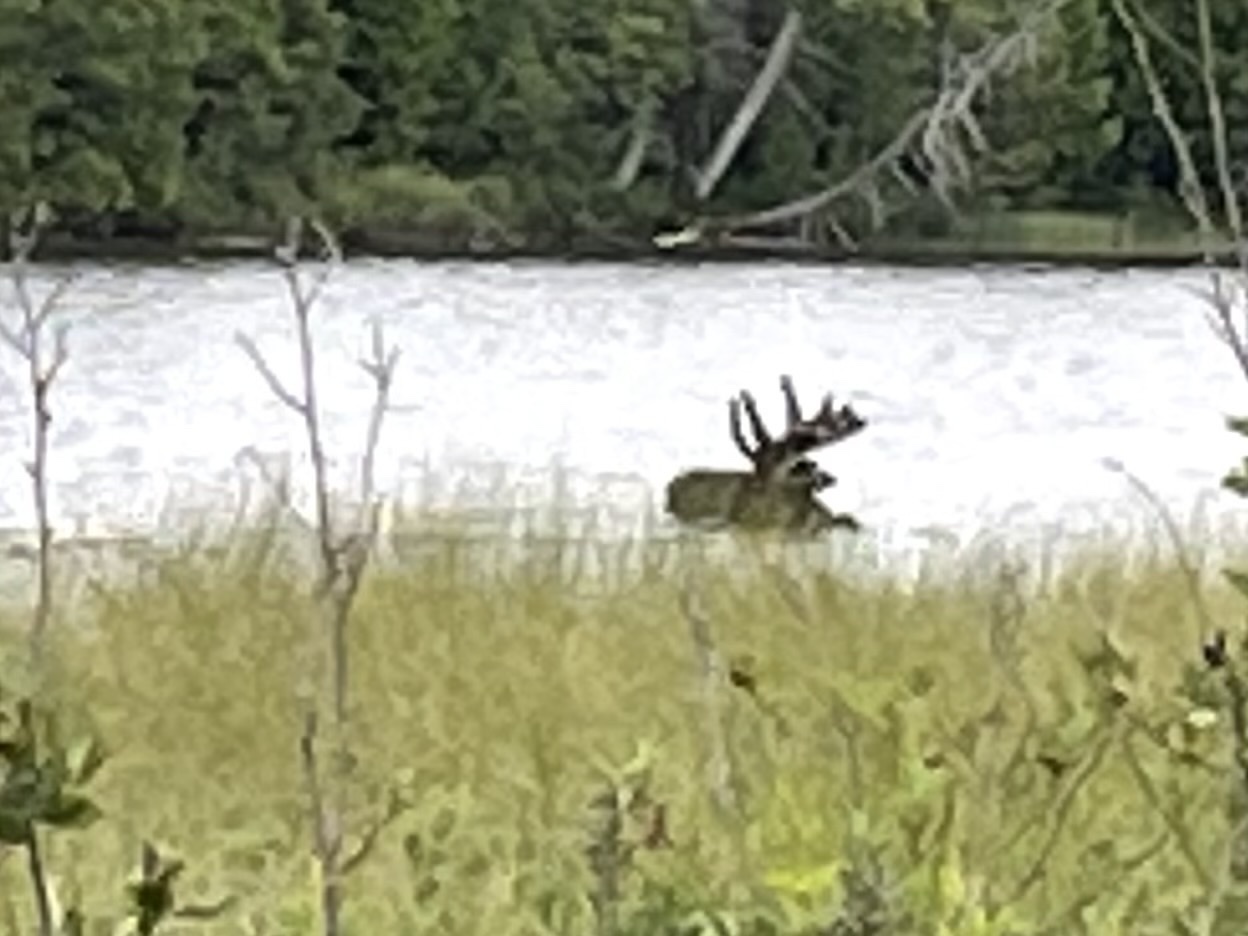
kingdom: Animalia
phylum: Chordata
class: Mammalia
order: Artiodactyla
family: Cervidae
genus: Alces
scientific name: Alces alces
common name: Moose
